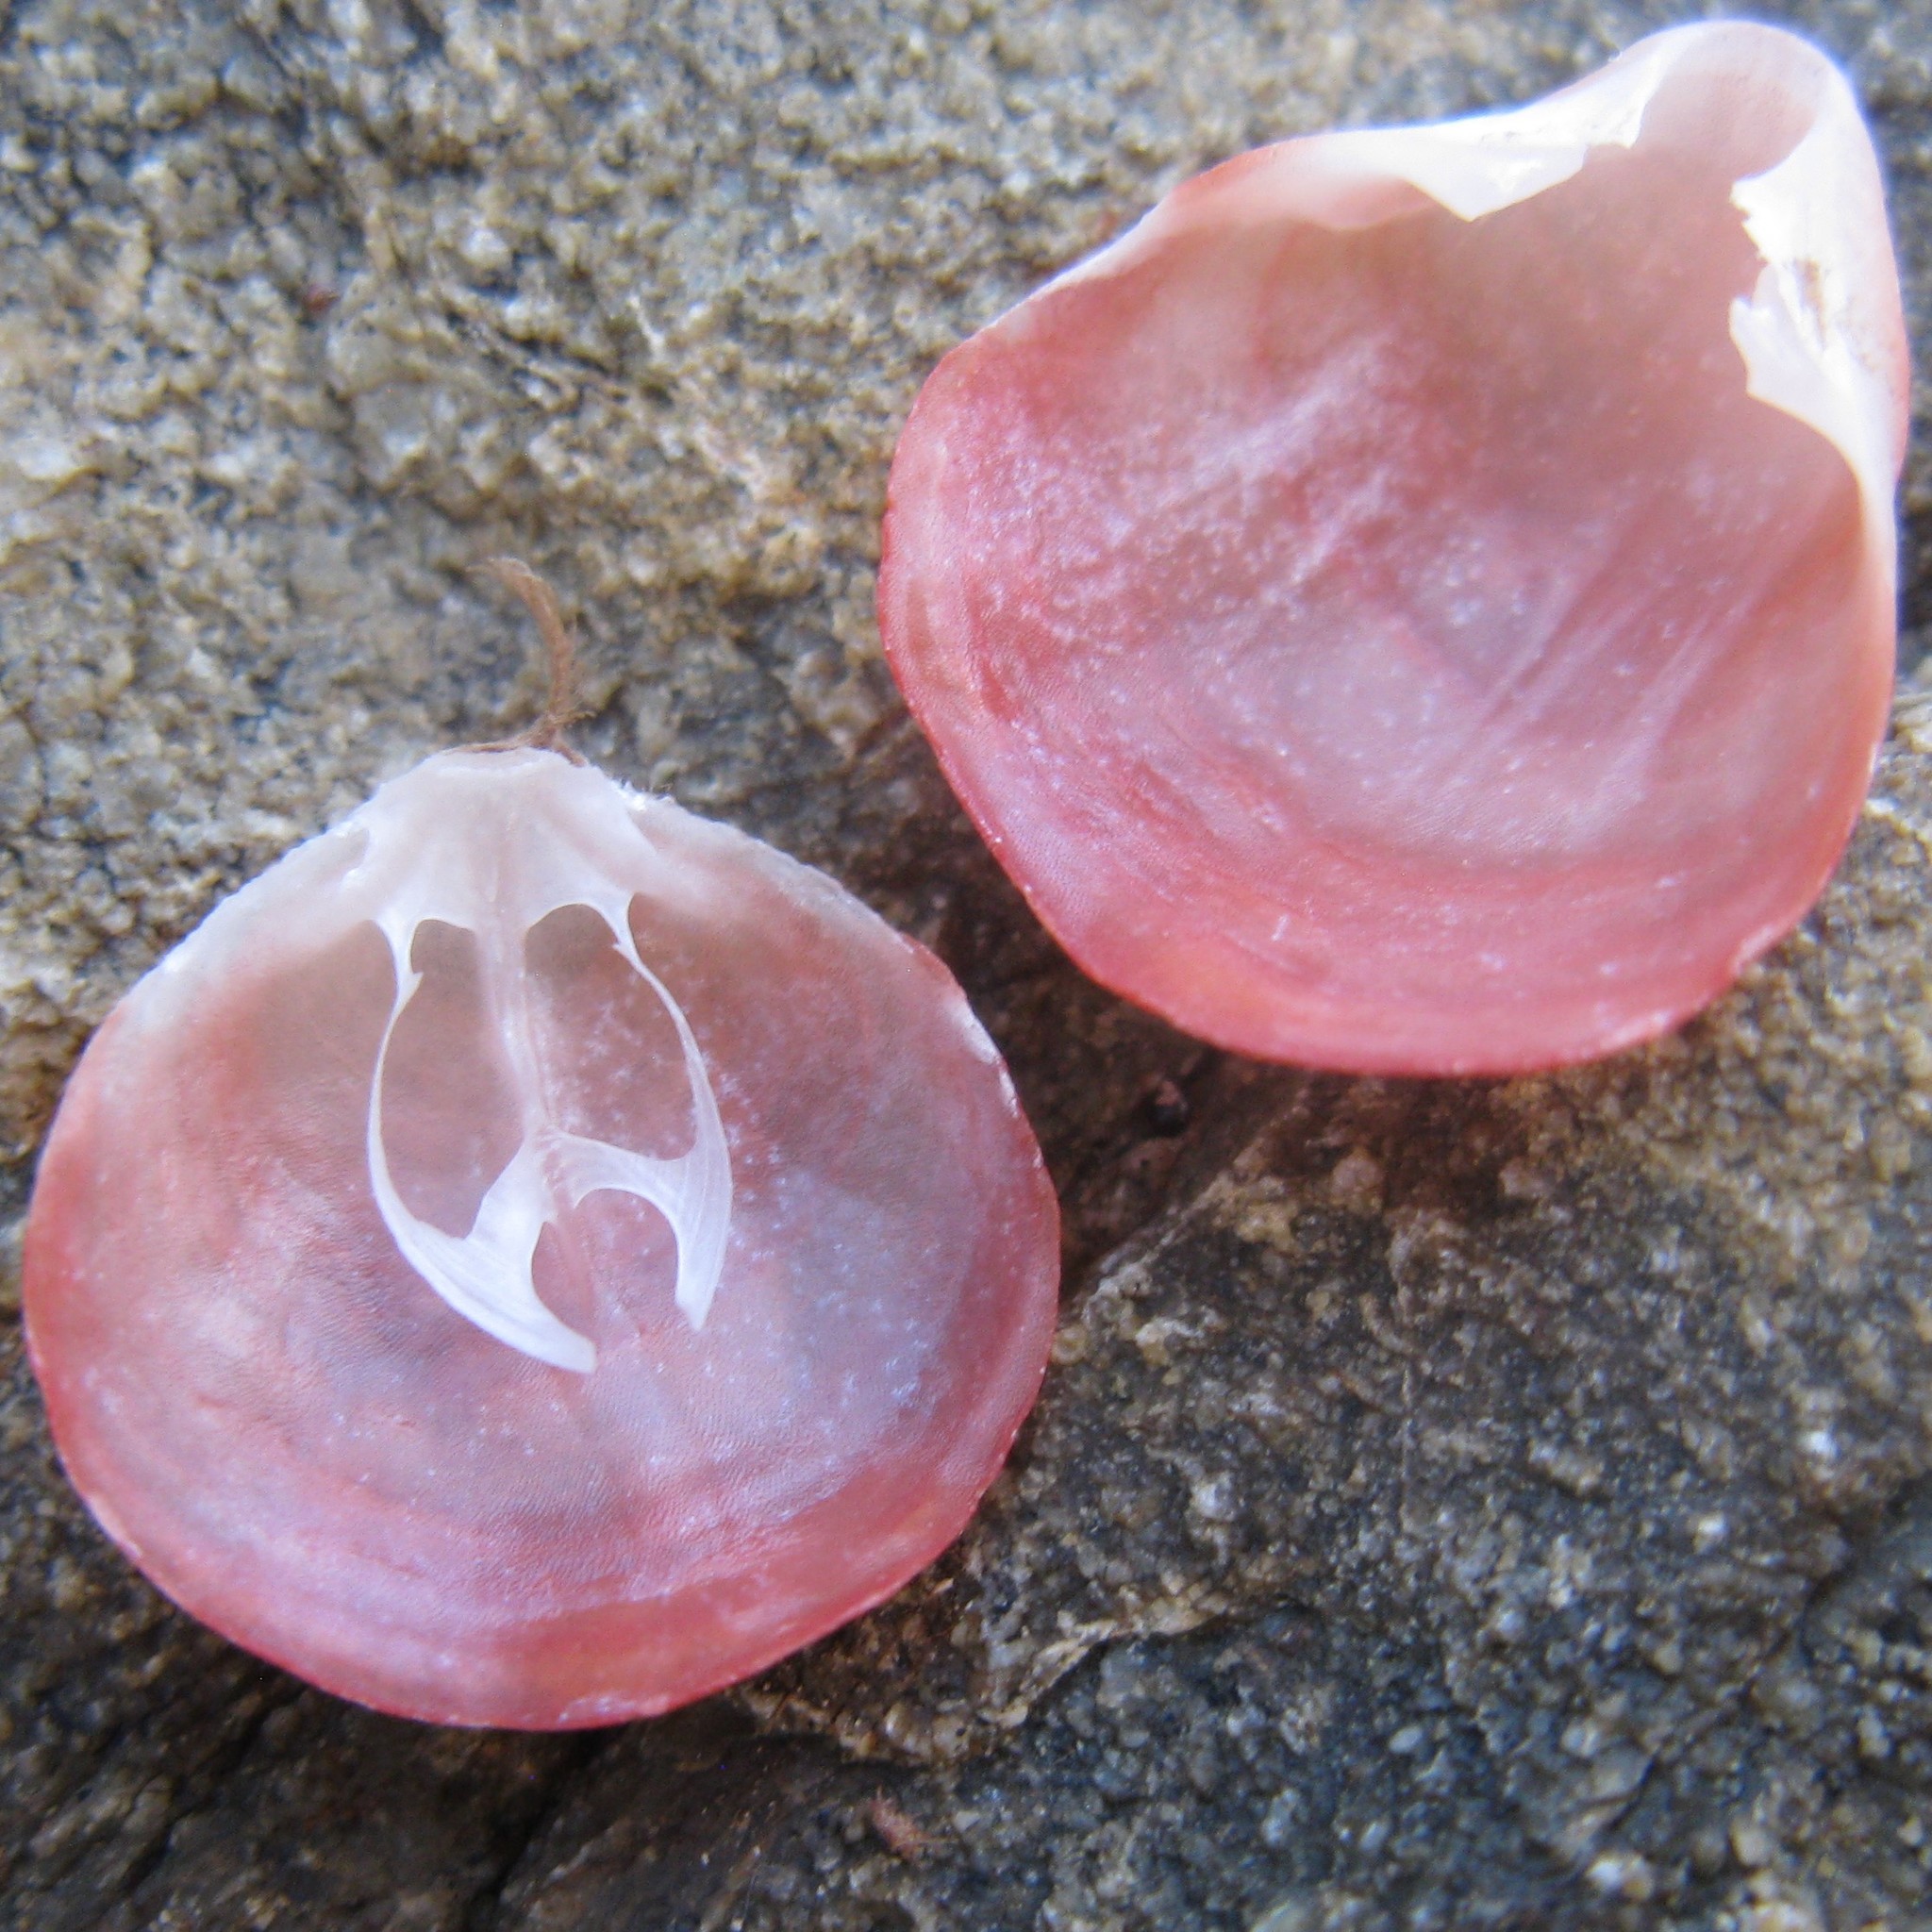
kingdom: Animalia
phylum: Brachiopoda
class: Rhynchonellata
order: Terebratulida
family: Terebratellidae
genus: Calloria
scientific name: Calloria inconspicua
